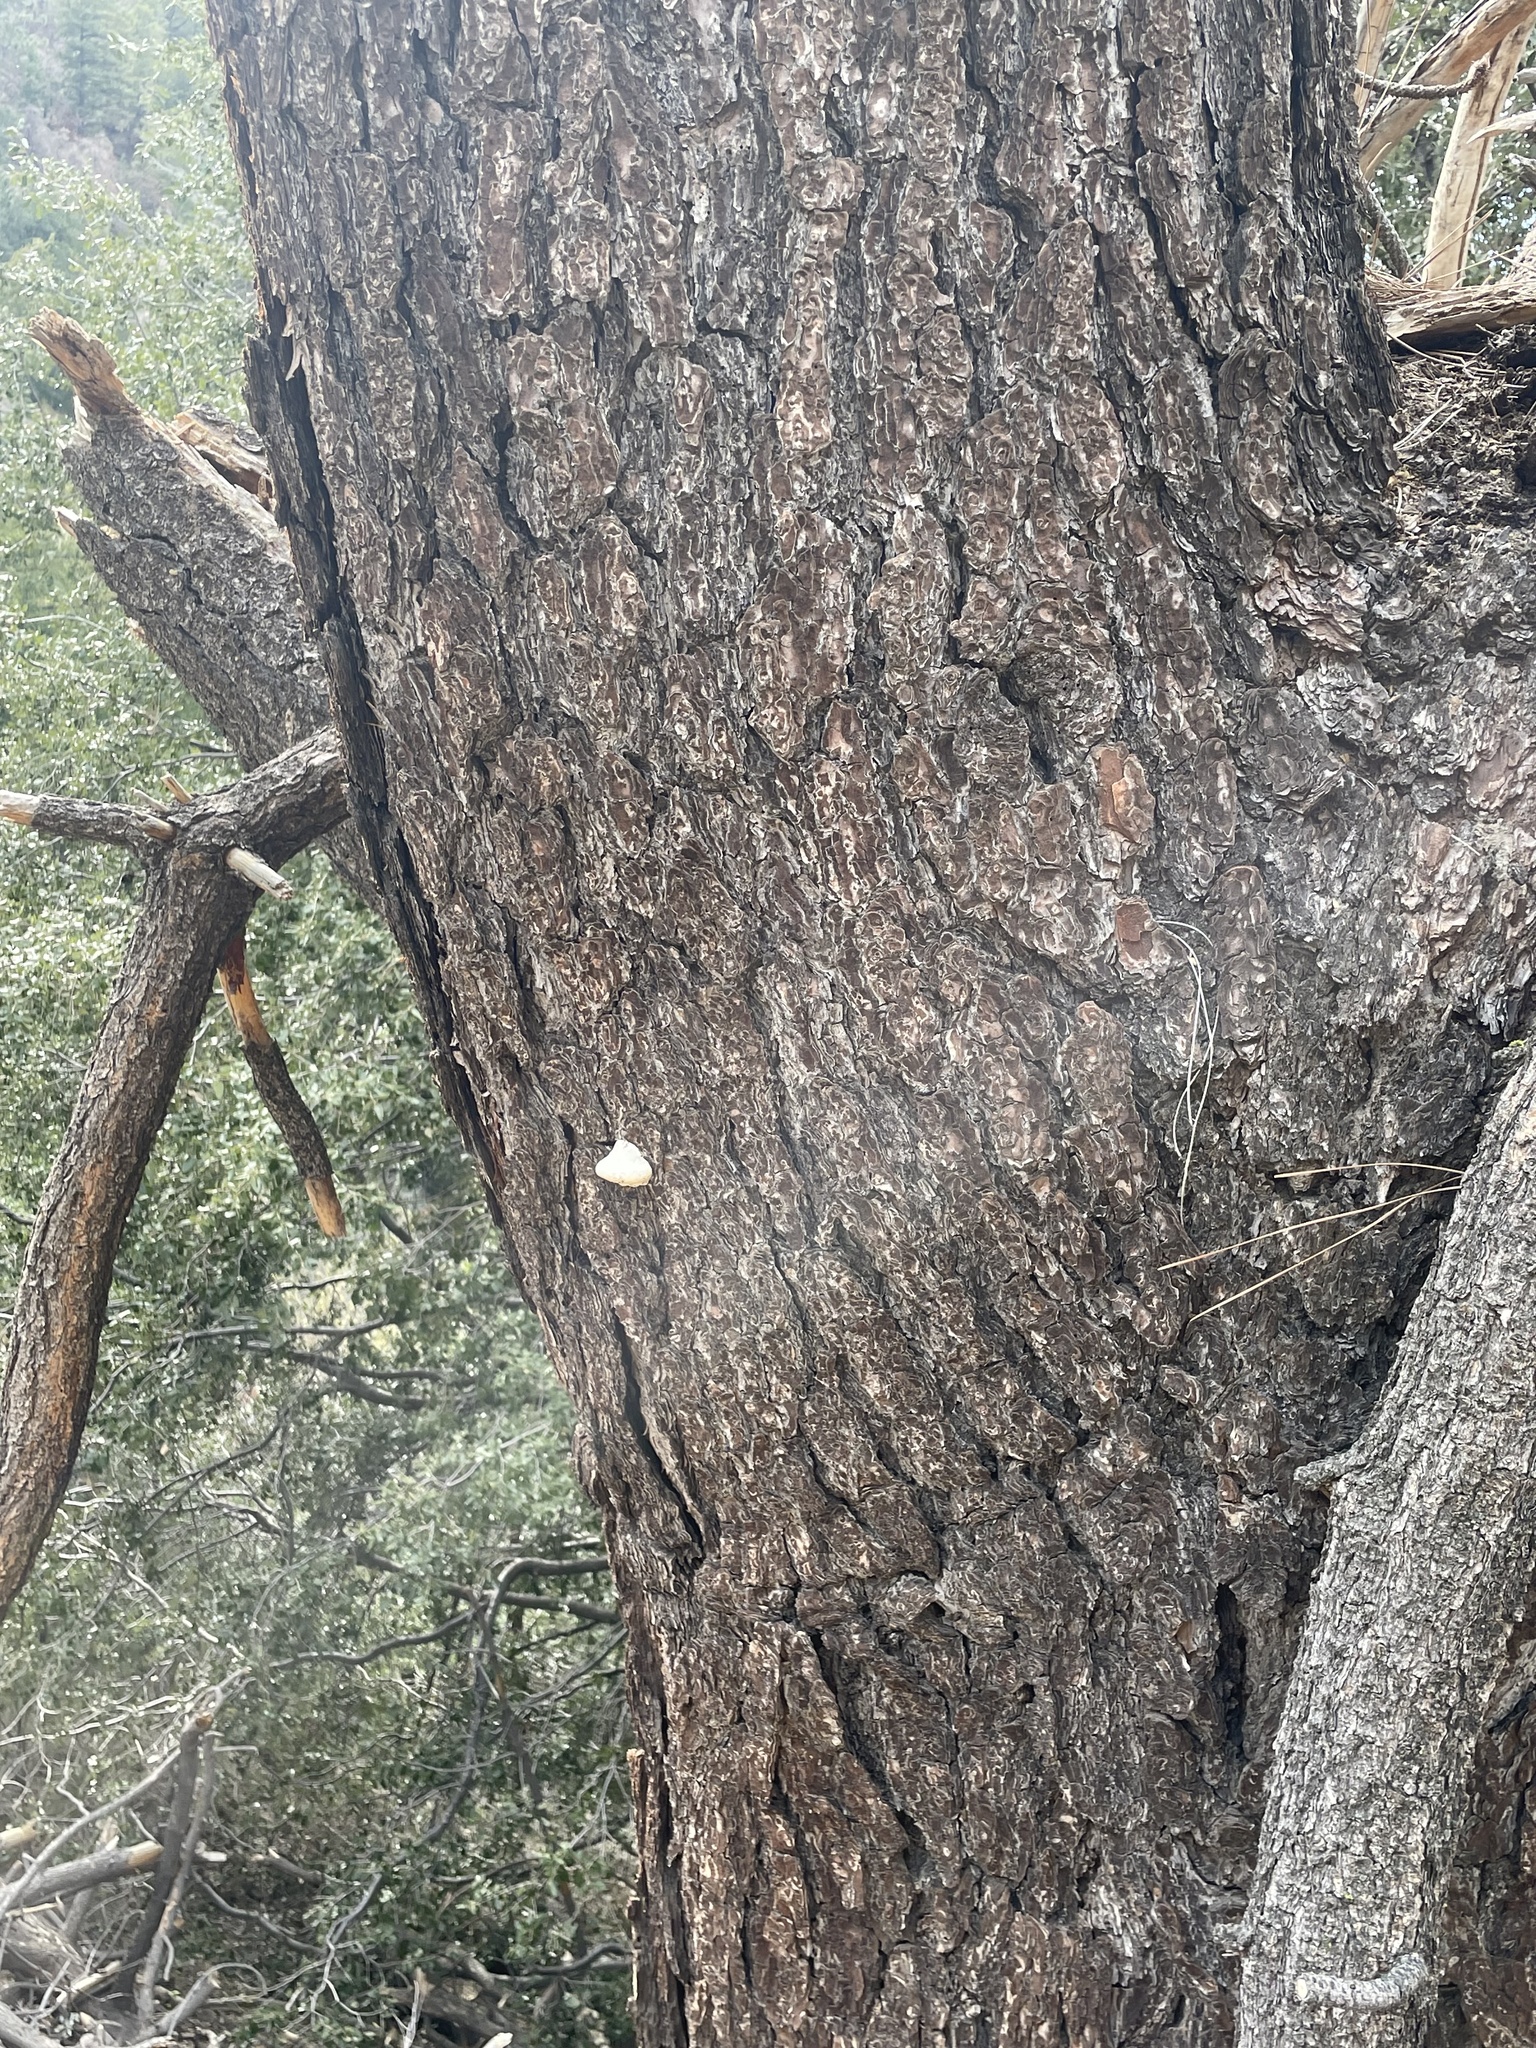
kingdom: Fungi
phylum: Basidiomycota
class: Agaricomycetes
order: Polyporales
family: Polyporaceae
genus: Cryptoporus
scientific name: Cryptoporus volvatus
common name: Veiled polypore
